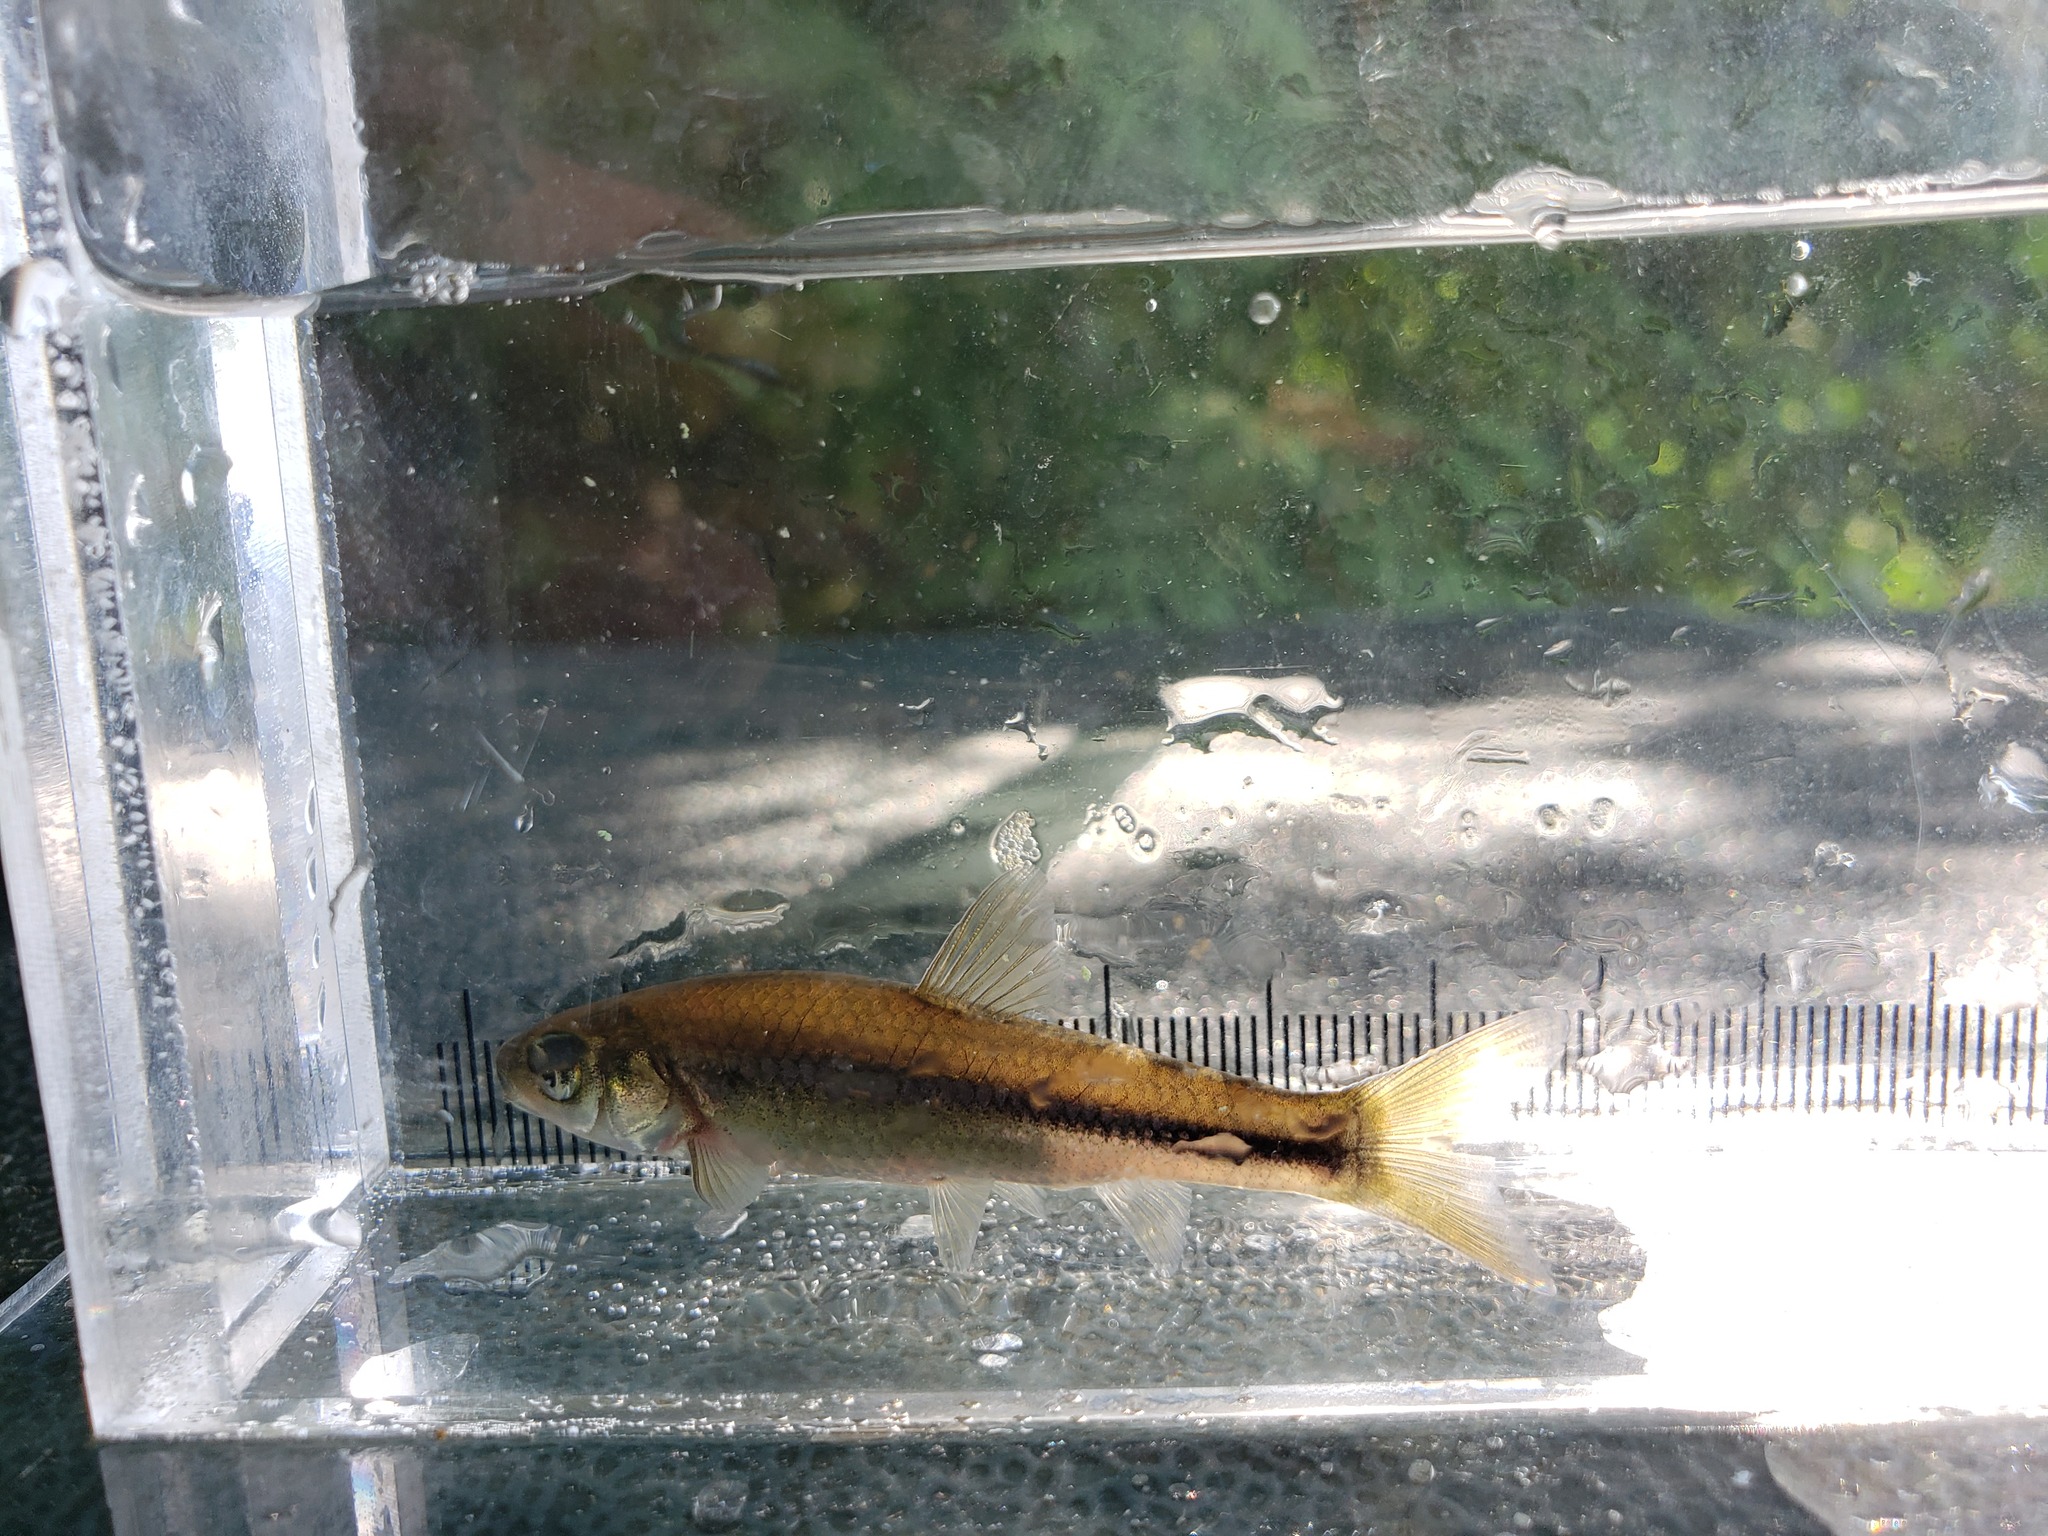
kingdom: Animalia
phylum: Chordata
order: Cypriniformes
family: Cyprinidae
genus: Hybognathus
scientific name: Hybognathus hankinsoni
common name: Brassy minnow
